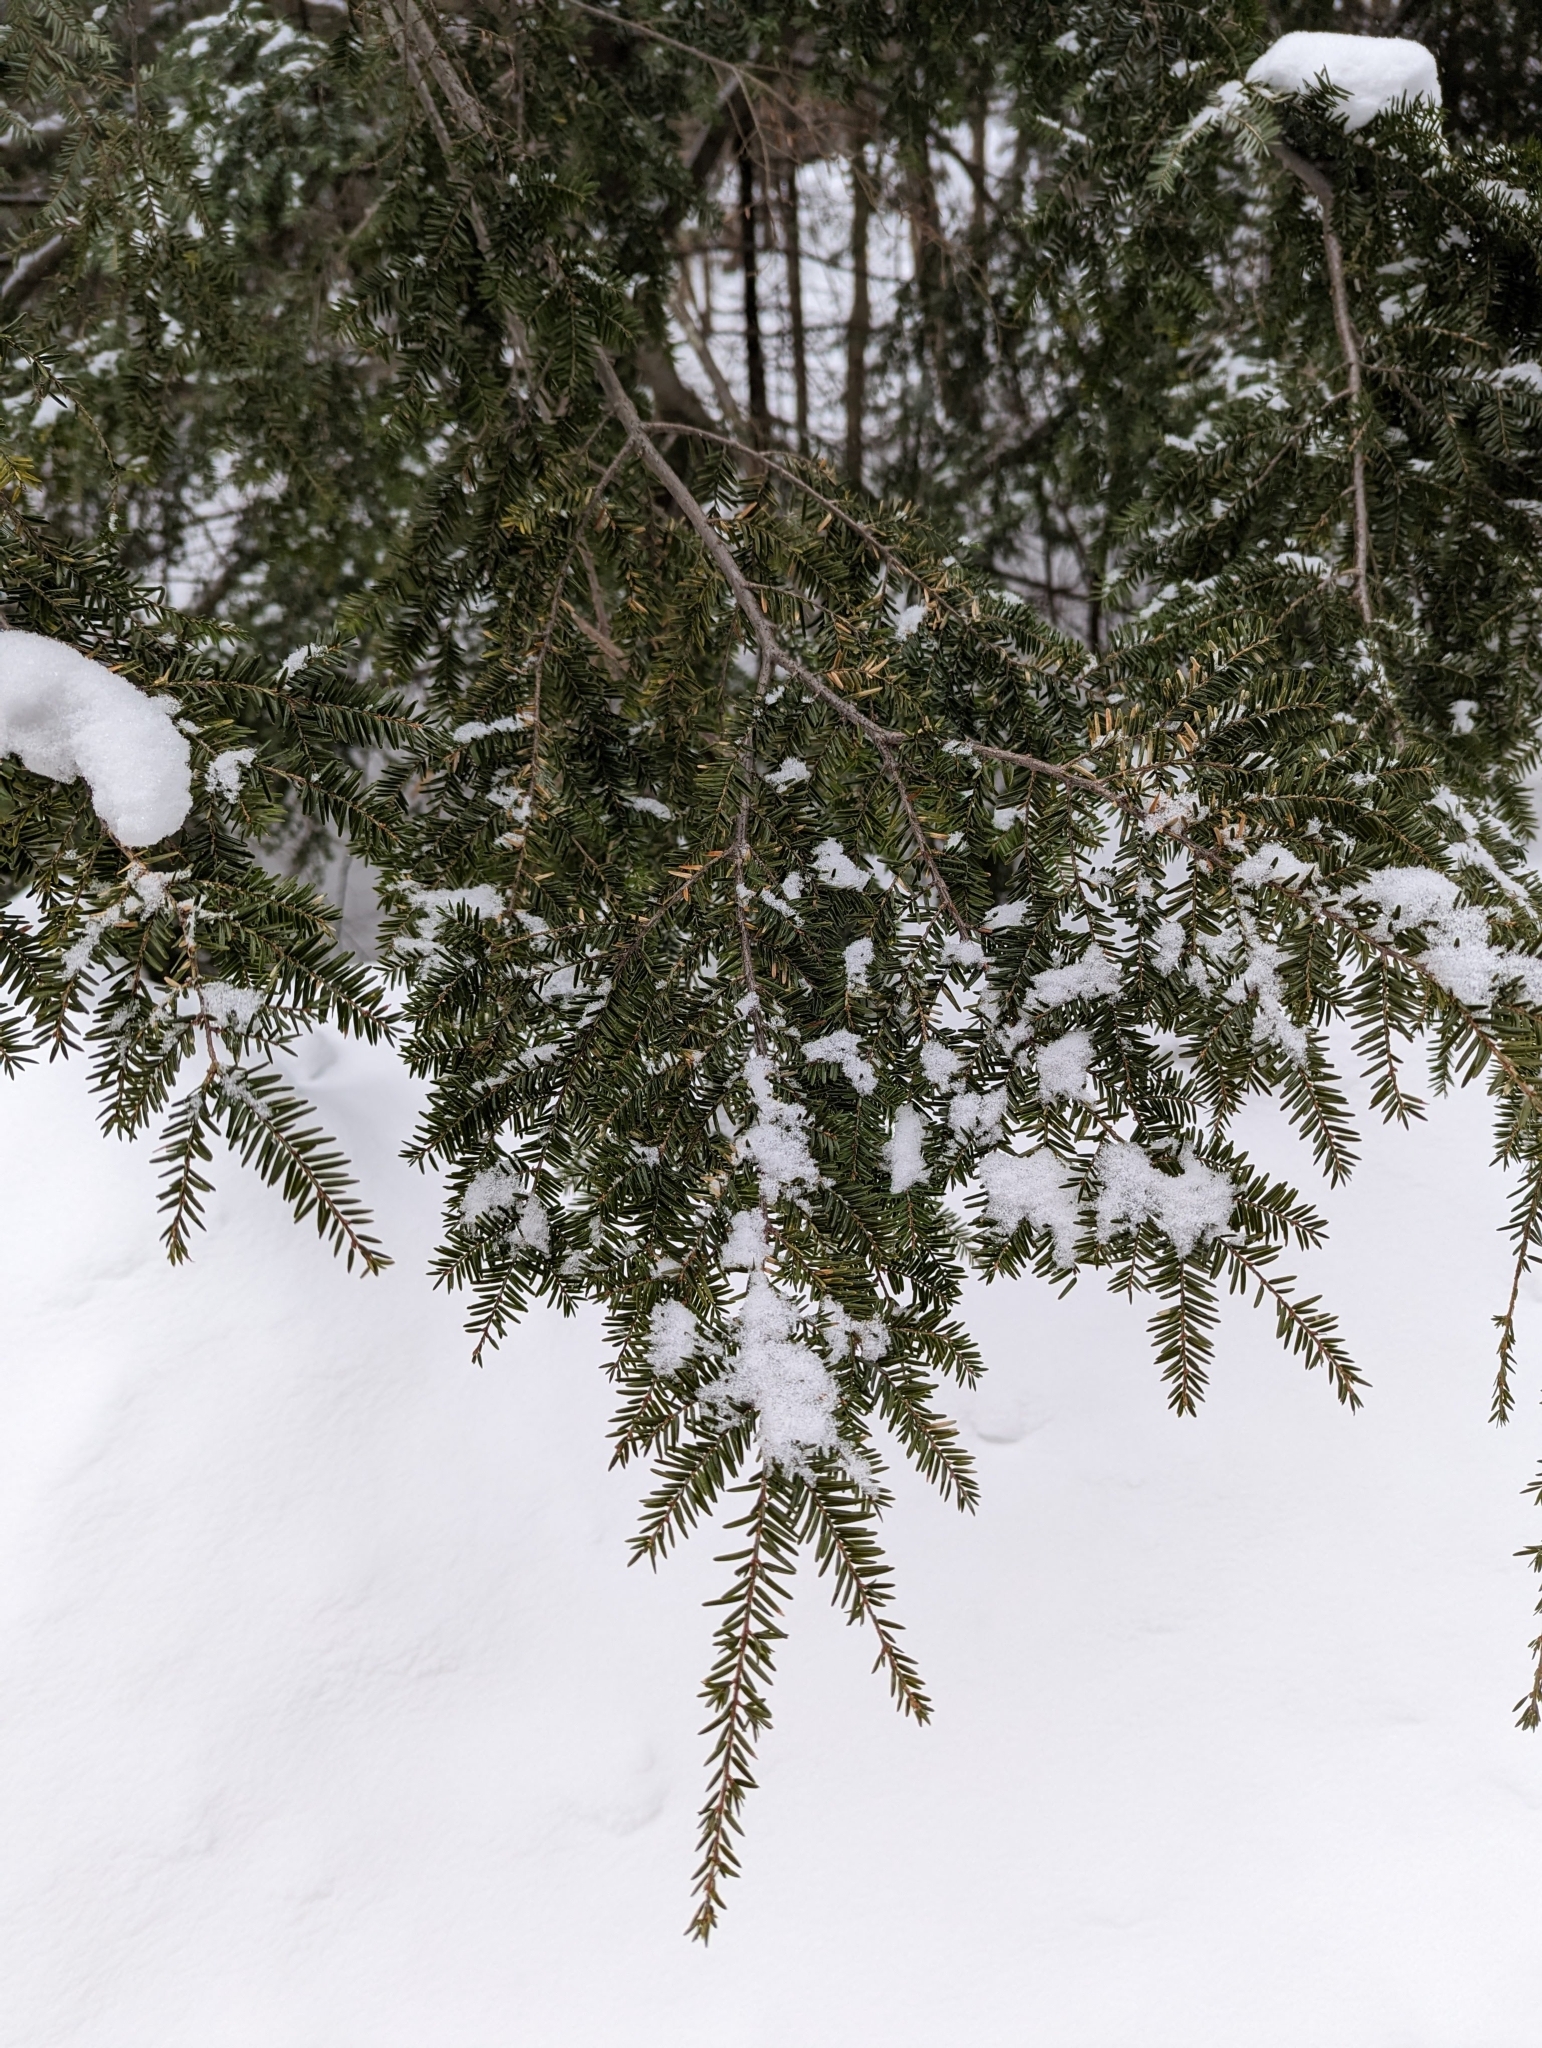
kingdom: Plantae
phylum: Tracheophyta
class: Pinopsida
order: Pinales
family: Pinaceae
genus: Tsuga
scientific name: Tsuga canadensis
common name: Eastern hemlock
